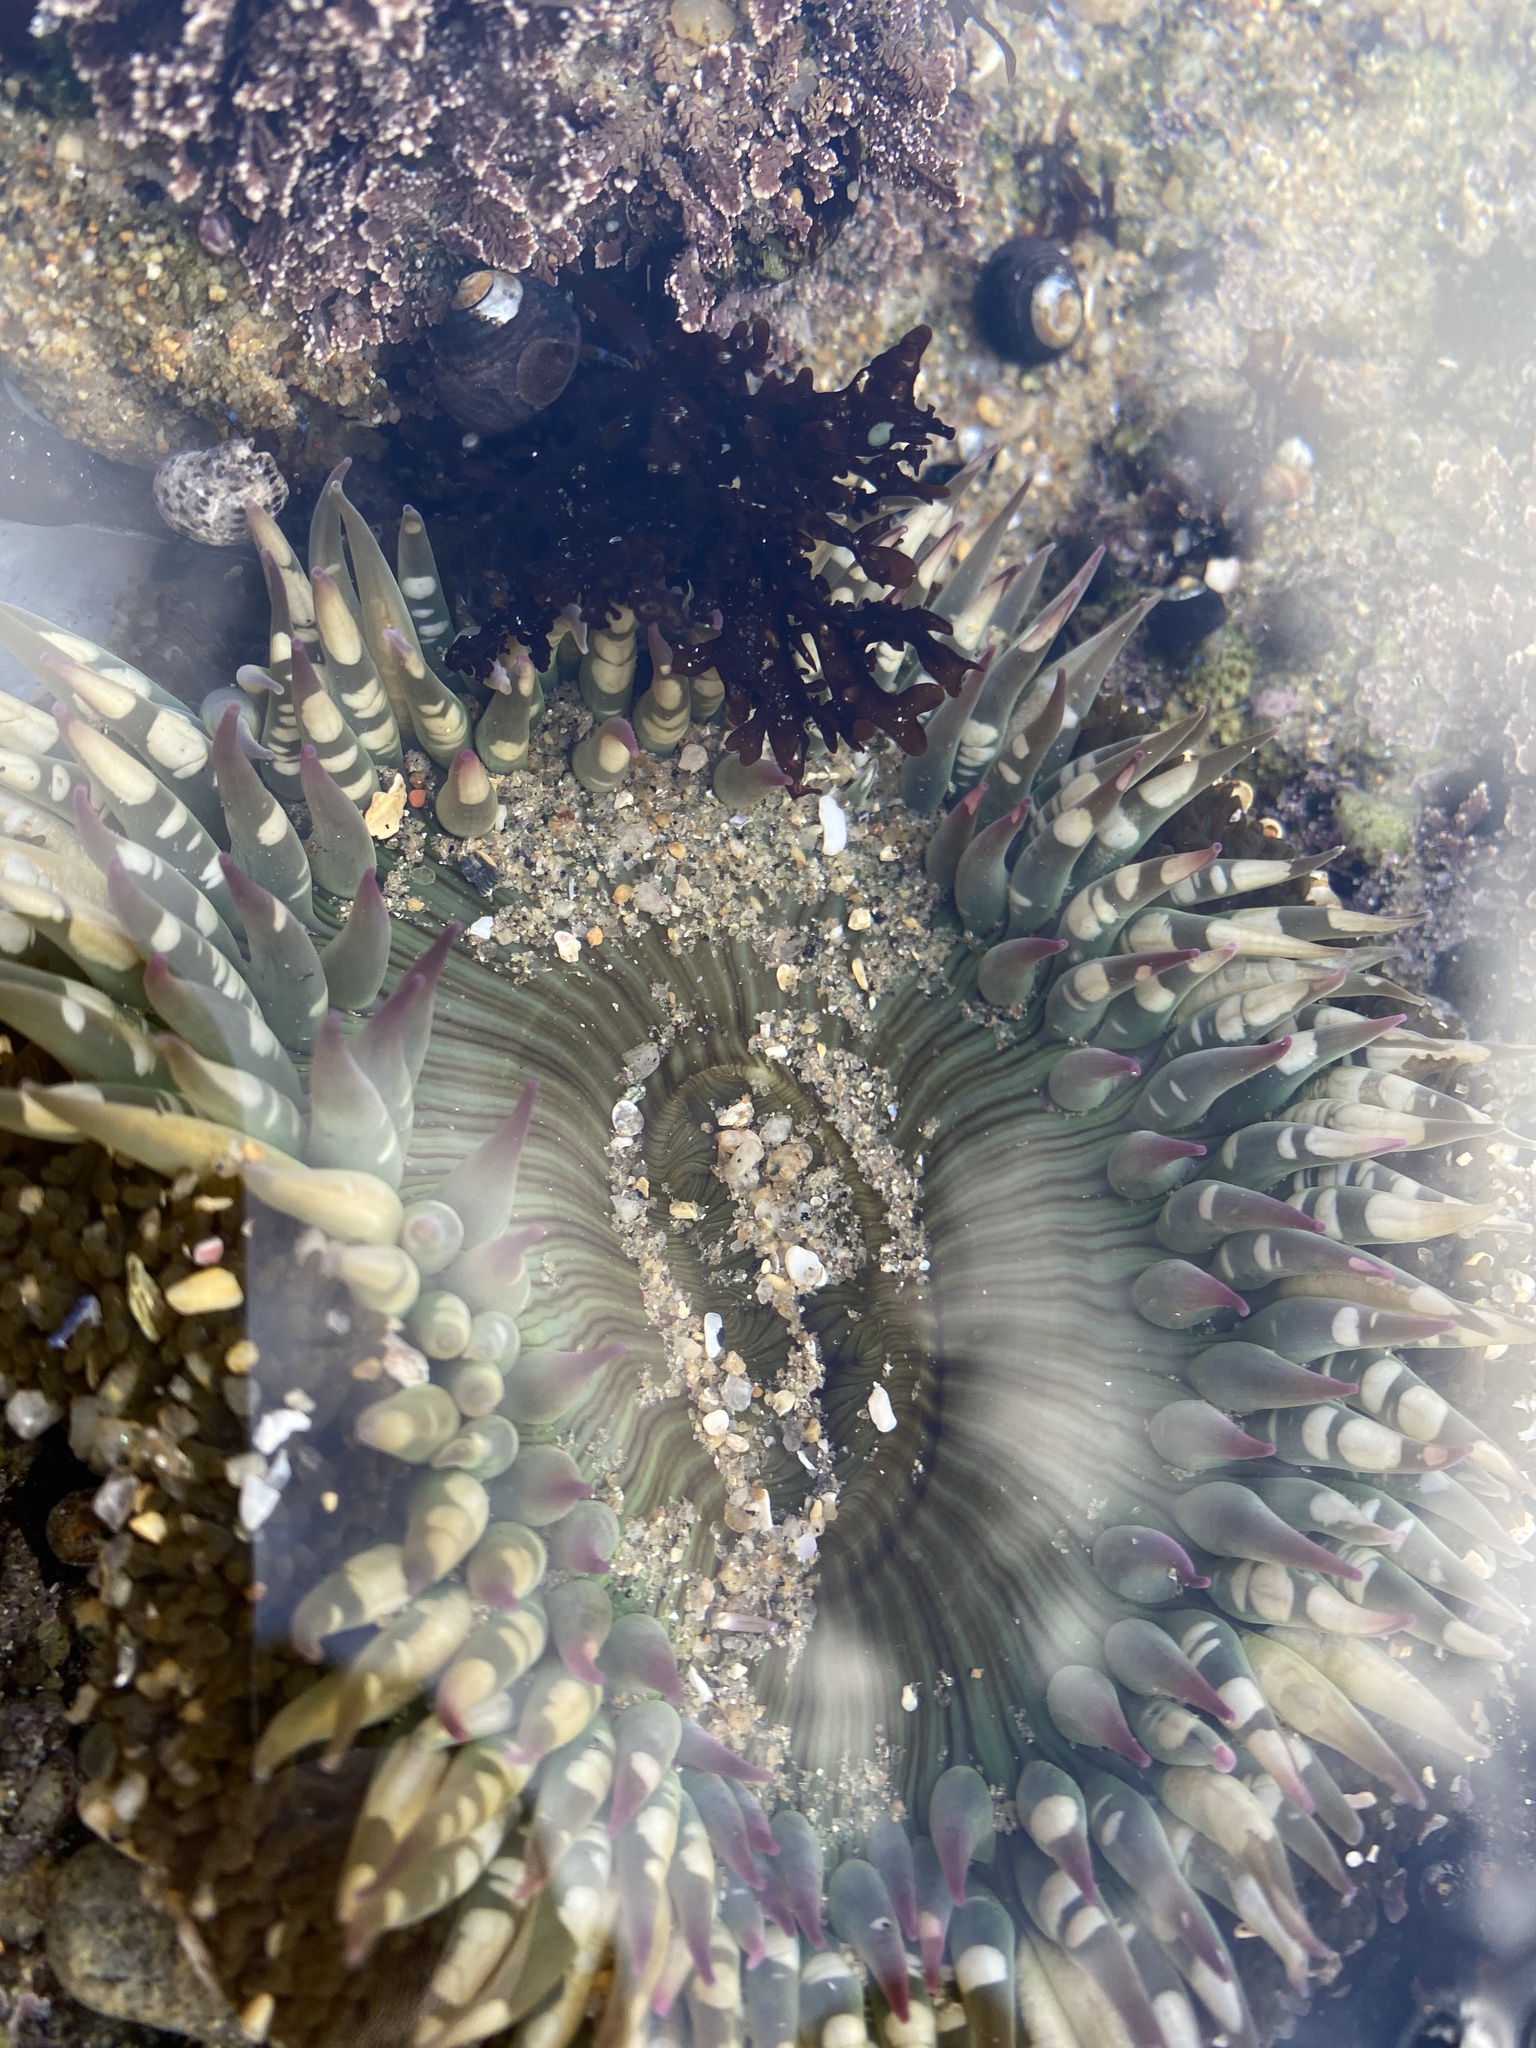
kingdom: Animalia
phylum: Cnidaria
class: Anthozoa
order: Actiniaria
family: Actiniidae
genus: Anthopleura
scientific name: Anthopleura sola
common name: Sun anemone
